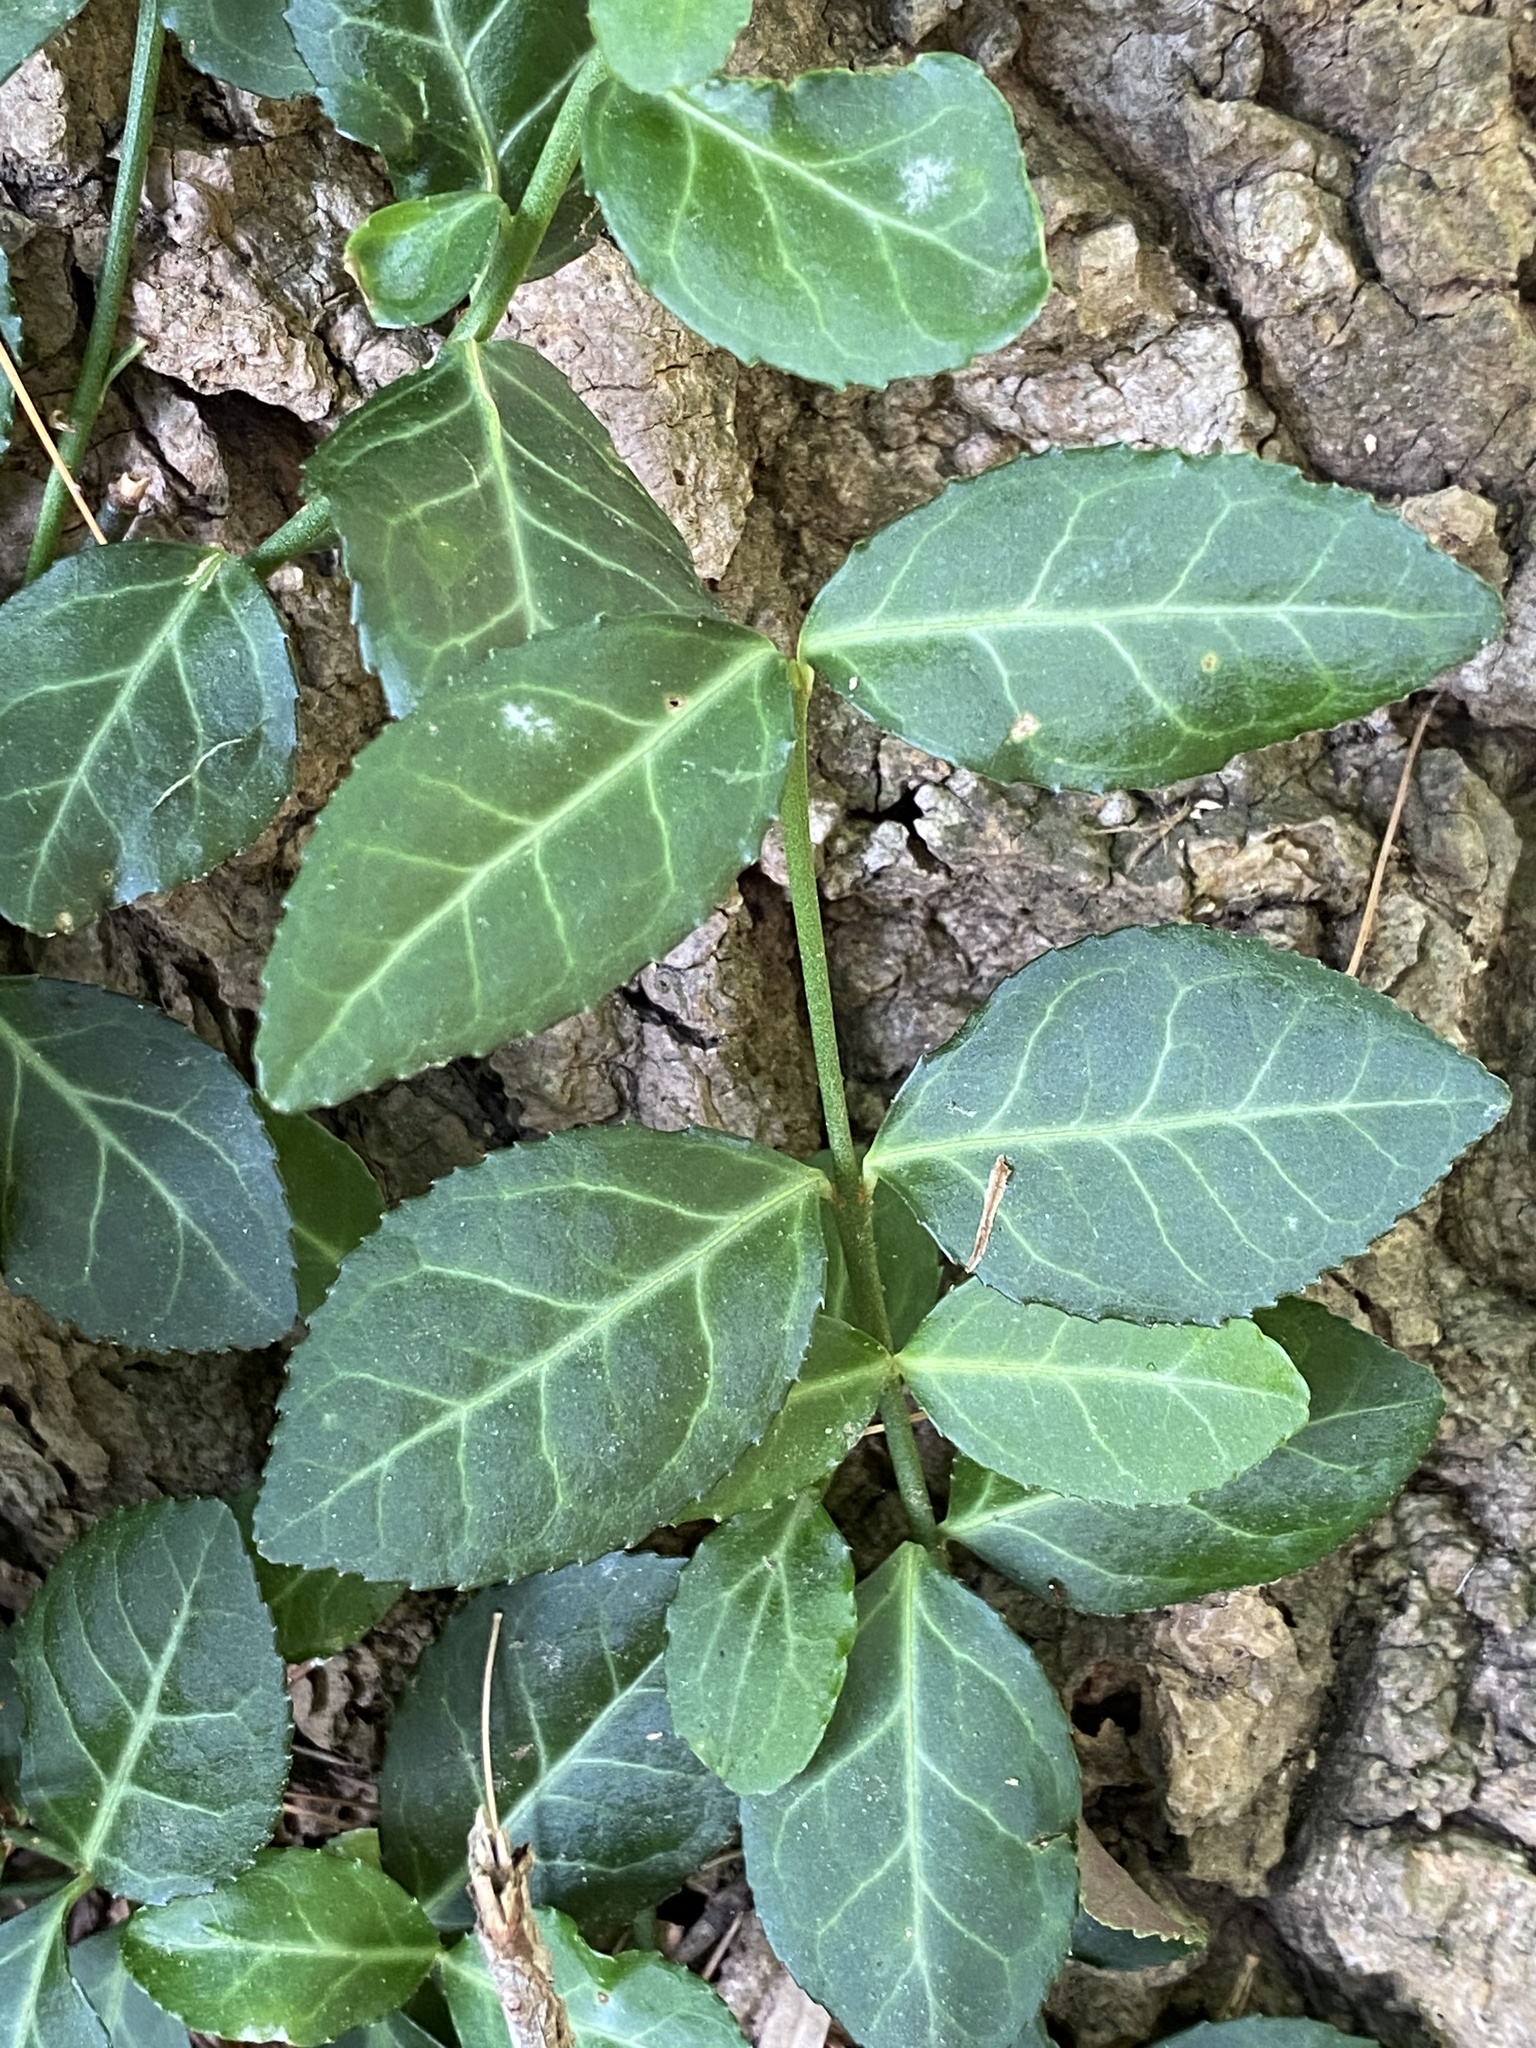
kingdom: Plantae
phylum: Tracheophyta
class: Magnoliopsida
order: Celastrales
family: Celastraceae
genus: Euonymus
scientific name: Euonymus fortunei
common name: Climbing euonymus
